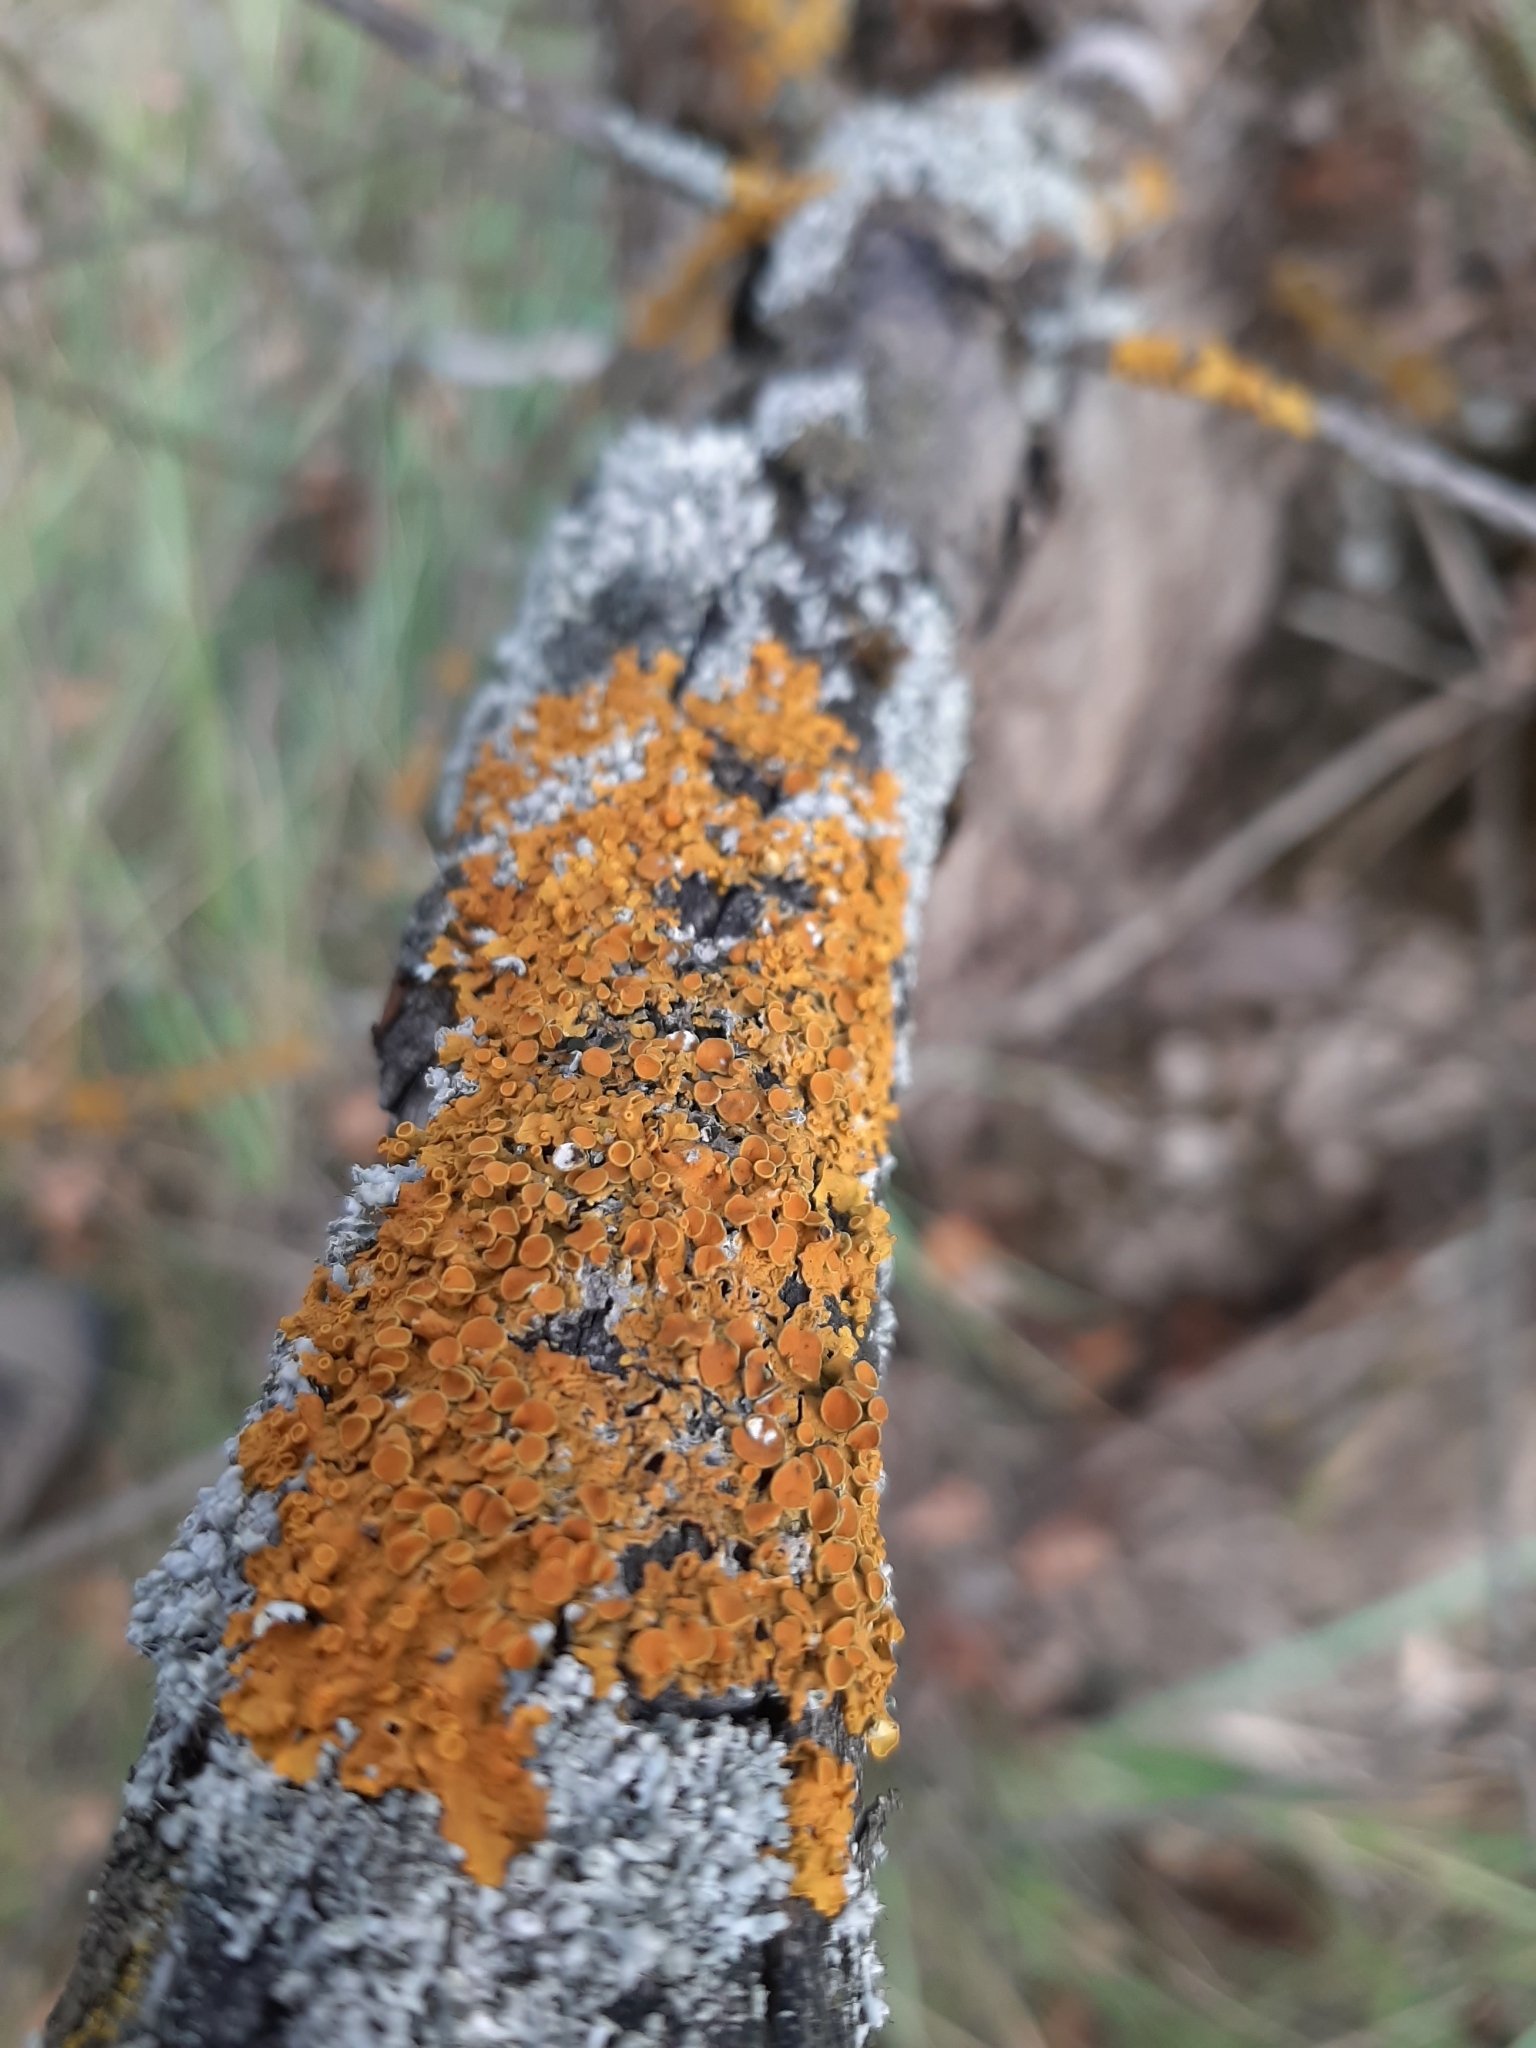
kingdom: Fungi
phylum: Ascomycota
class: Lecanoromycetes
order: Teloschistales
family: Teloschistaceae
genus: Xanthoria
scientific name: Xanthoria parietina
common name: Common orange lichen
